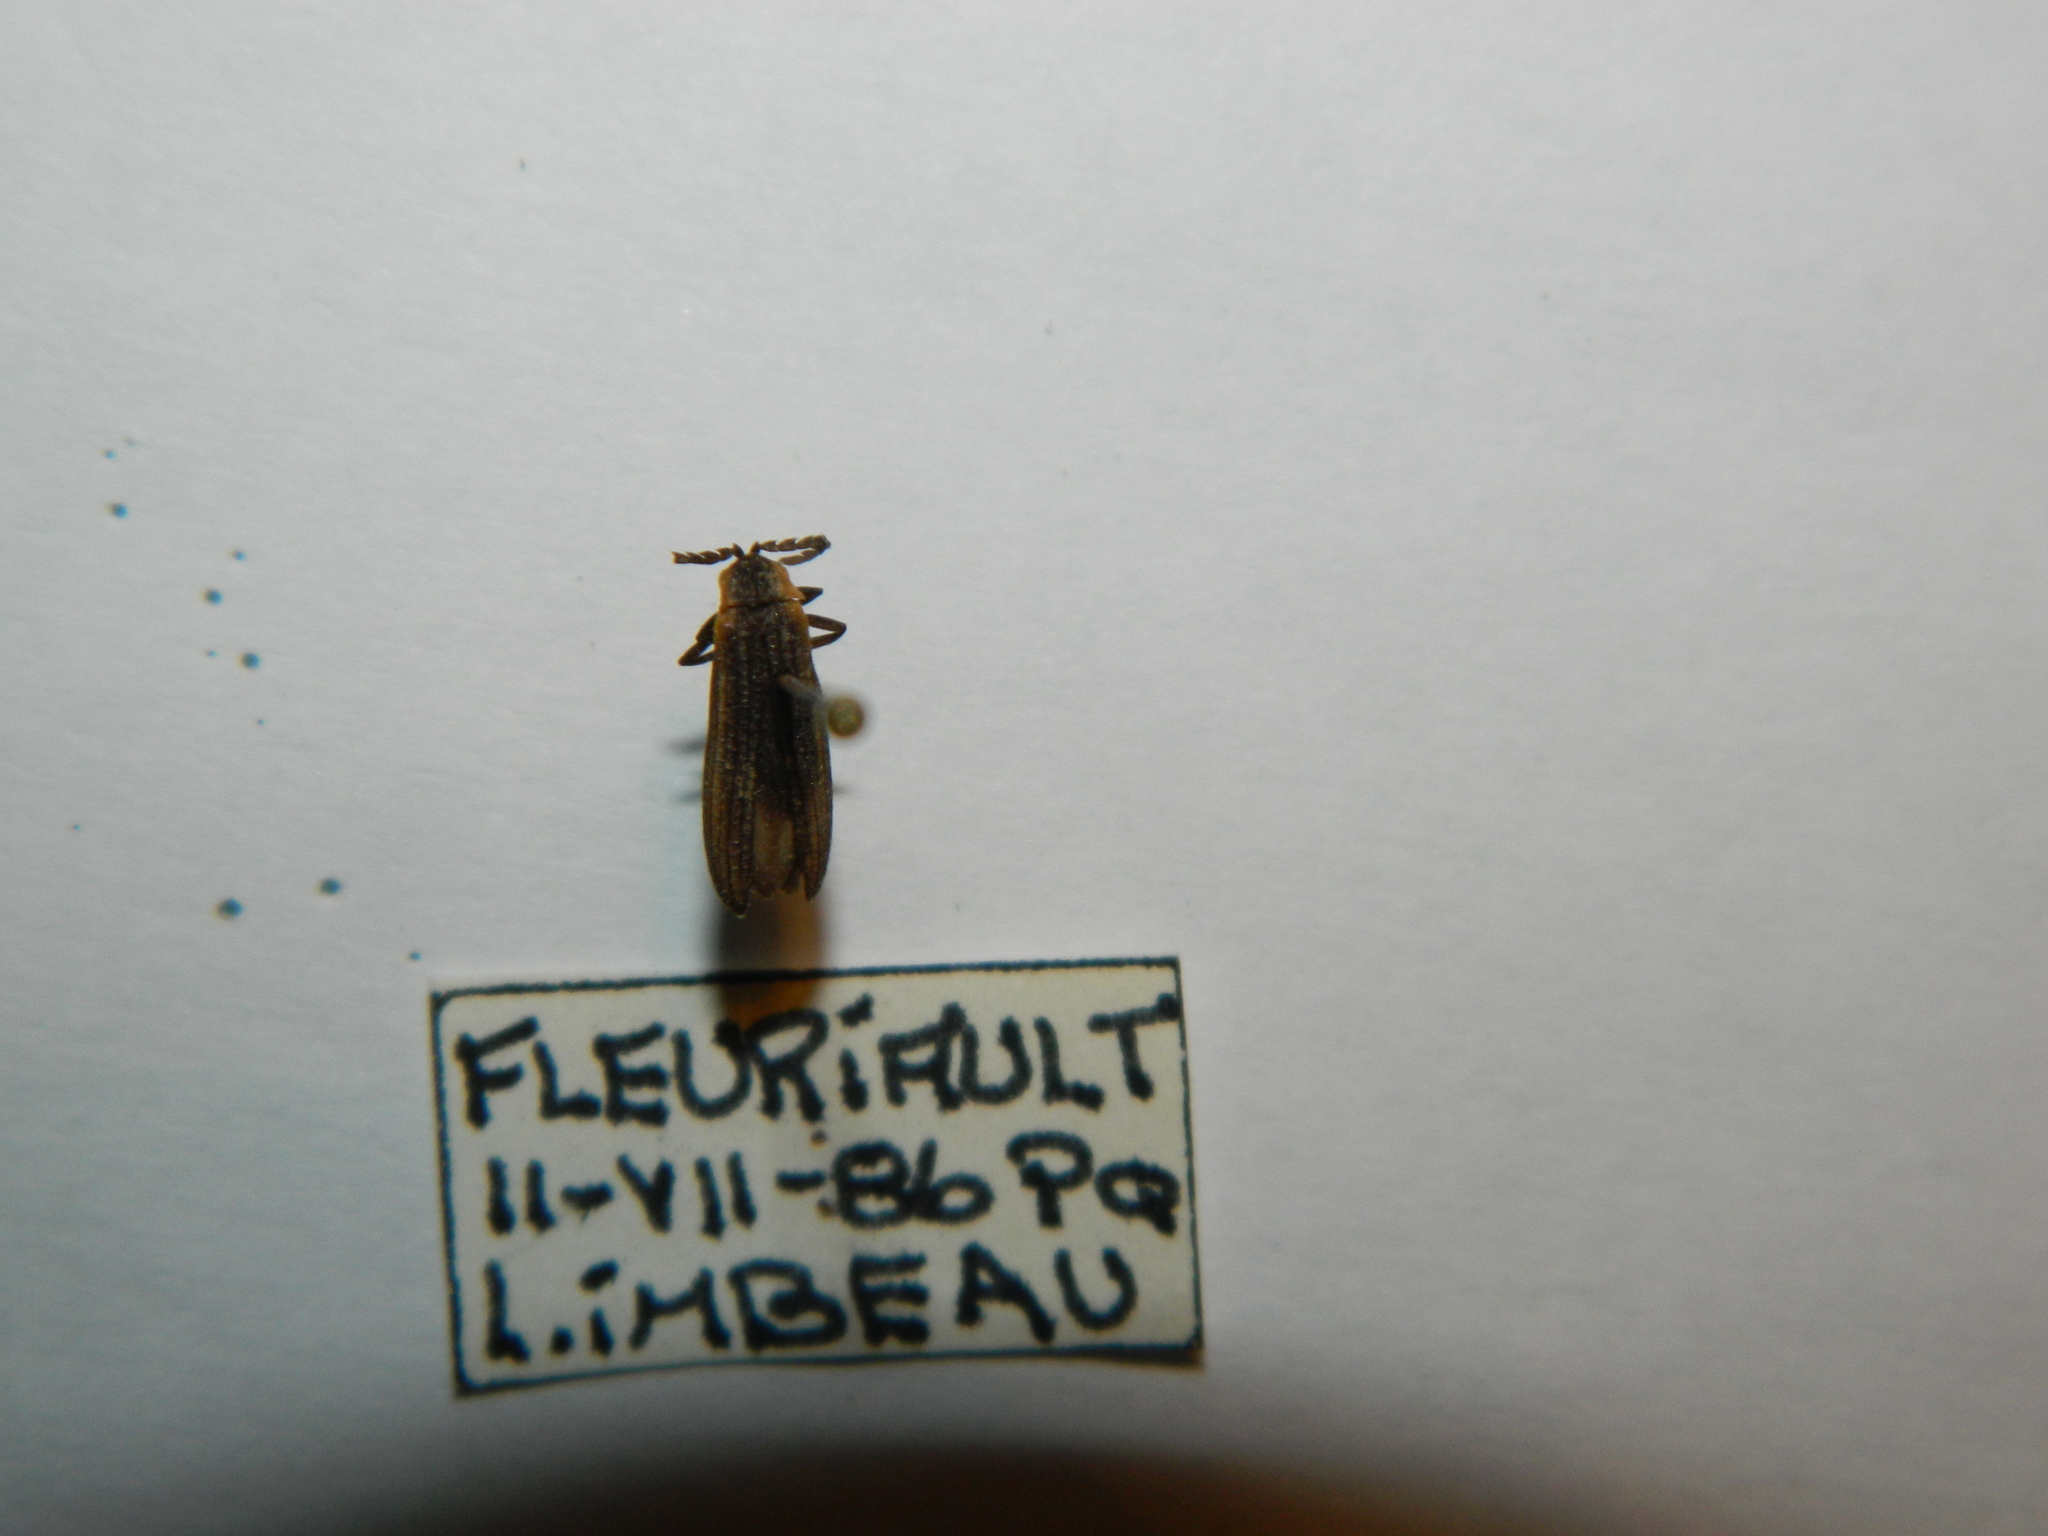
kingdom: Animalia
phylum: Arthropoda
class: Insecta
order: Coleoptera
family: Lycidae
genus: Leptoceletes
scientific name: Leptoceletes basalis
